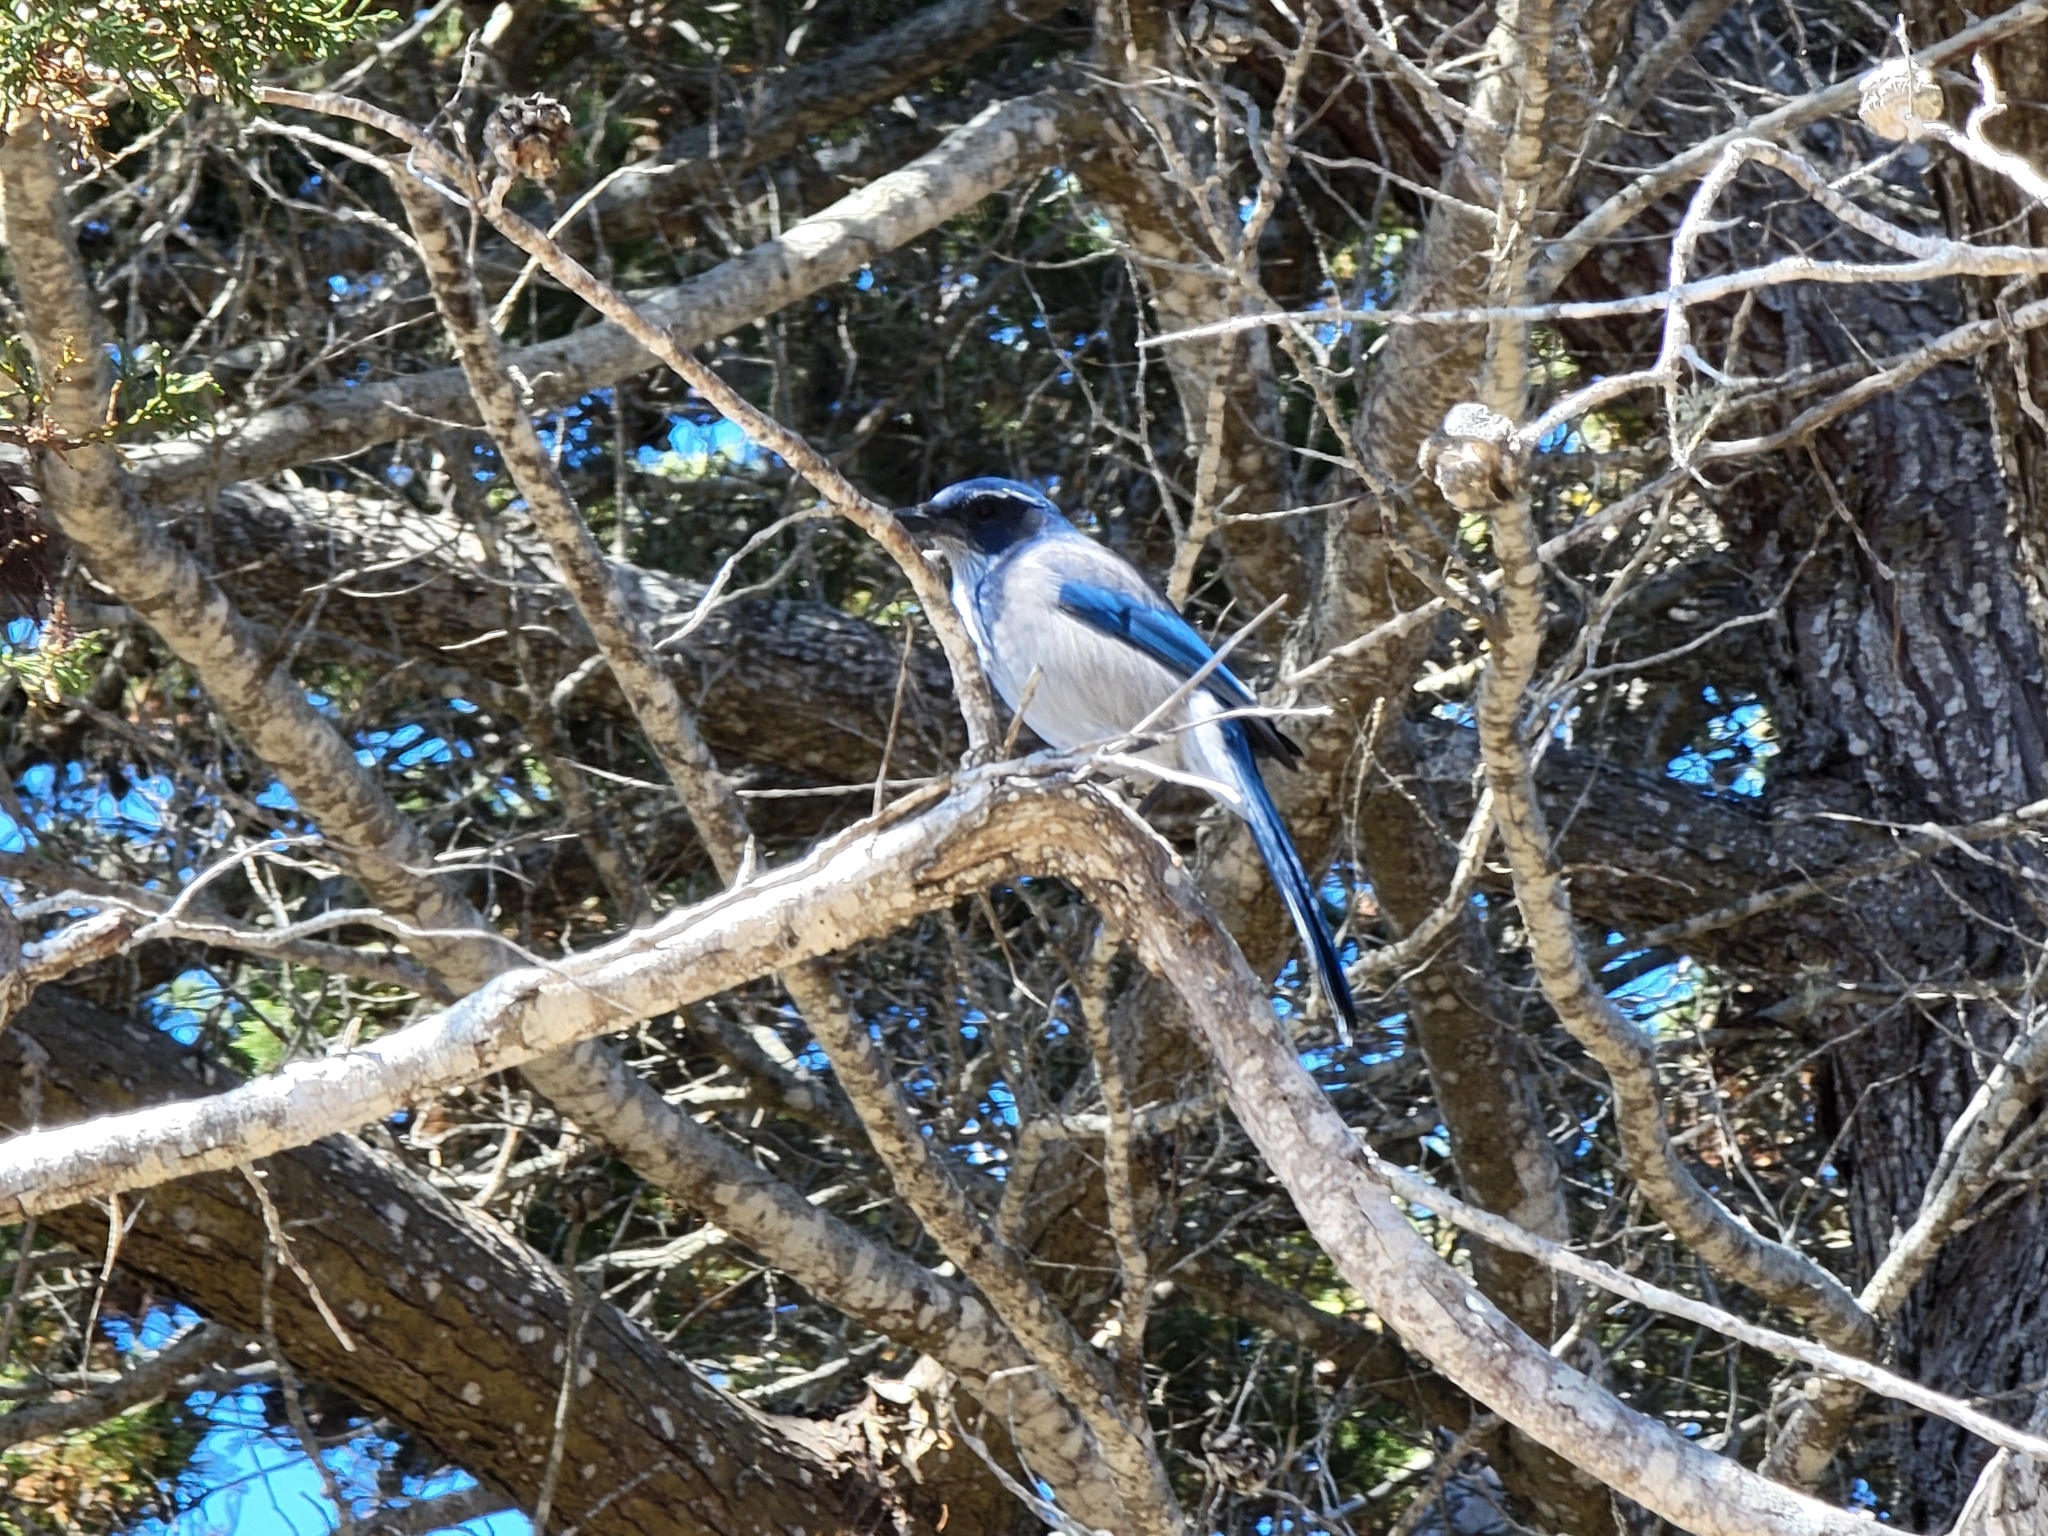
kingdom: Animalia
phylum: Chordata
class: Aves
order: Passeriformes
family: Corvidae
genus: Aphelocoma
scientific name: Aphelocoma californica
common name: California scrub-jay
